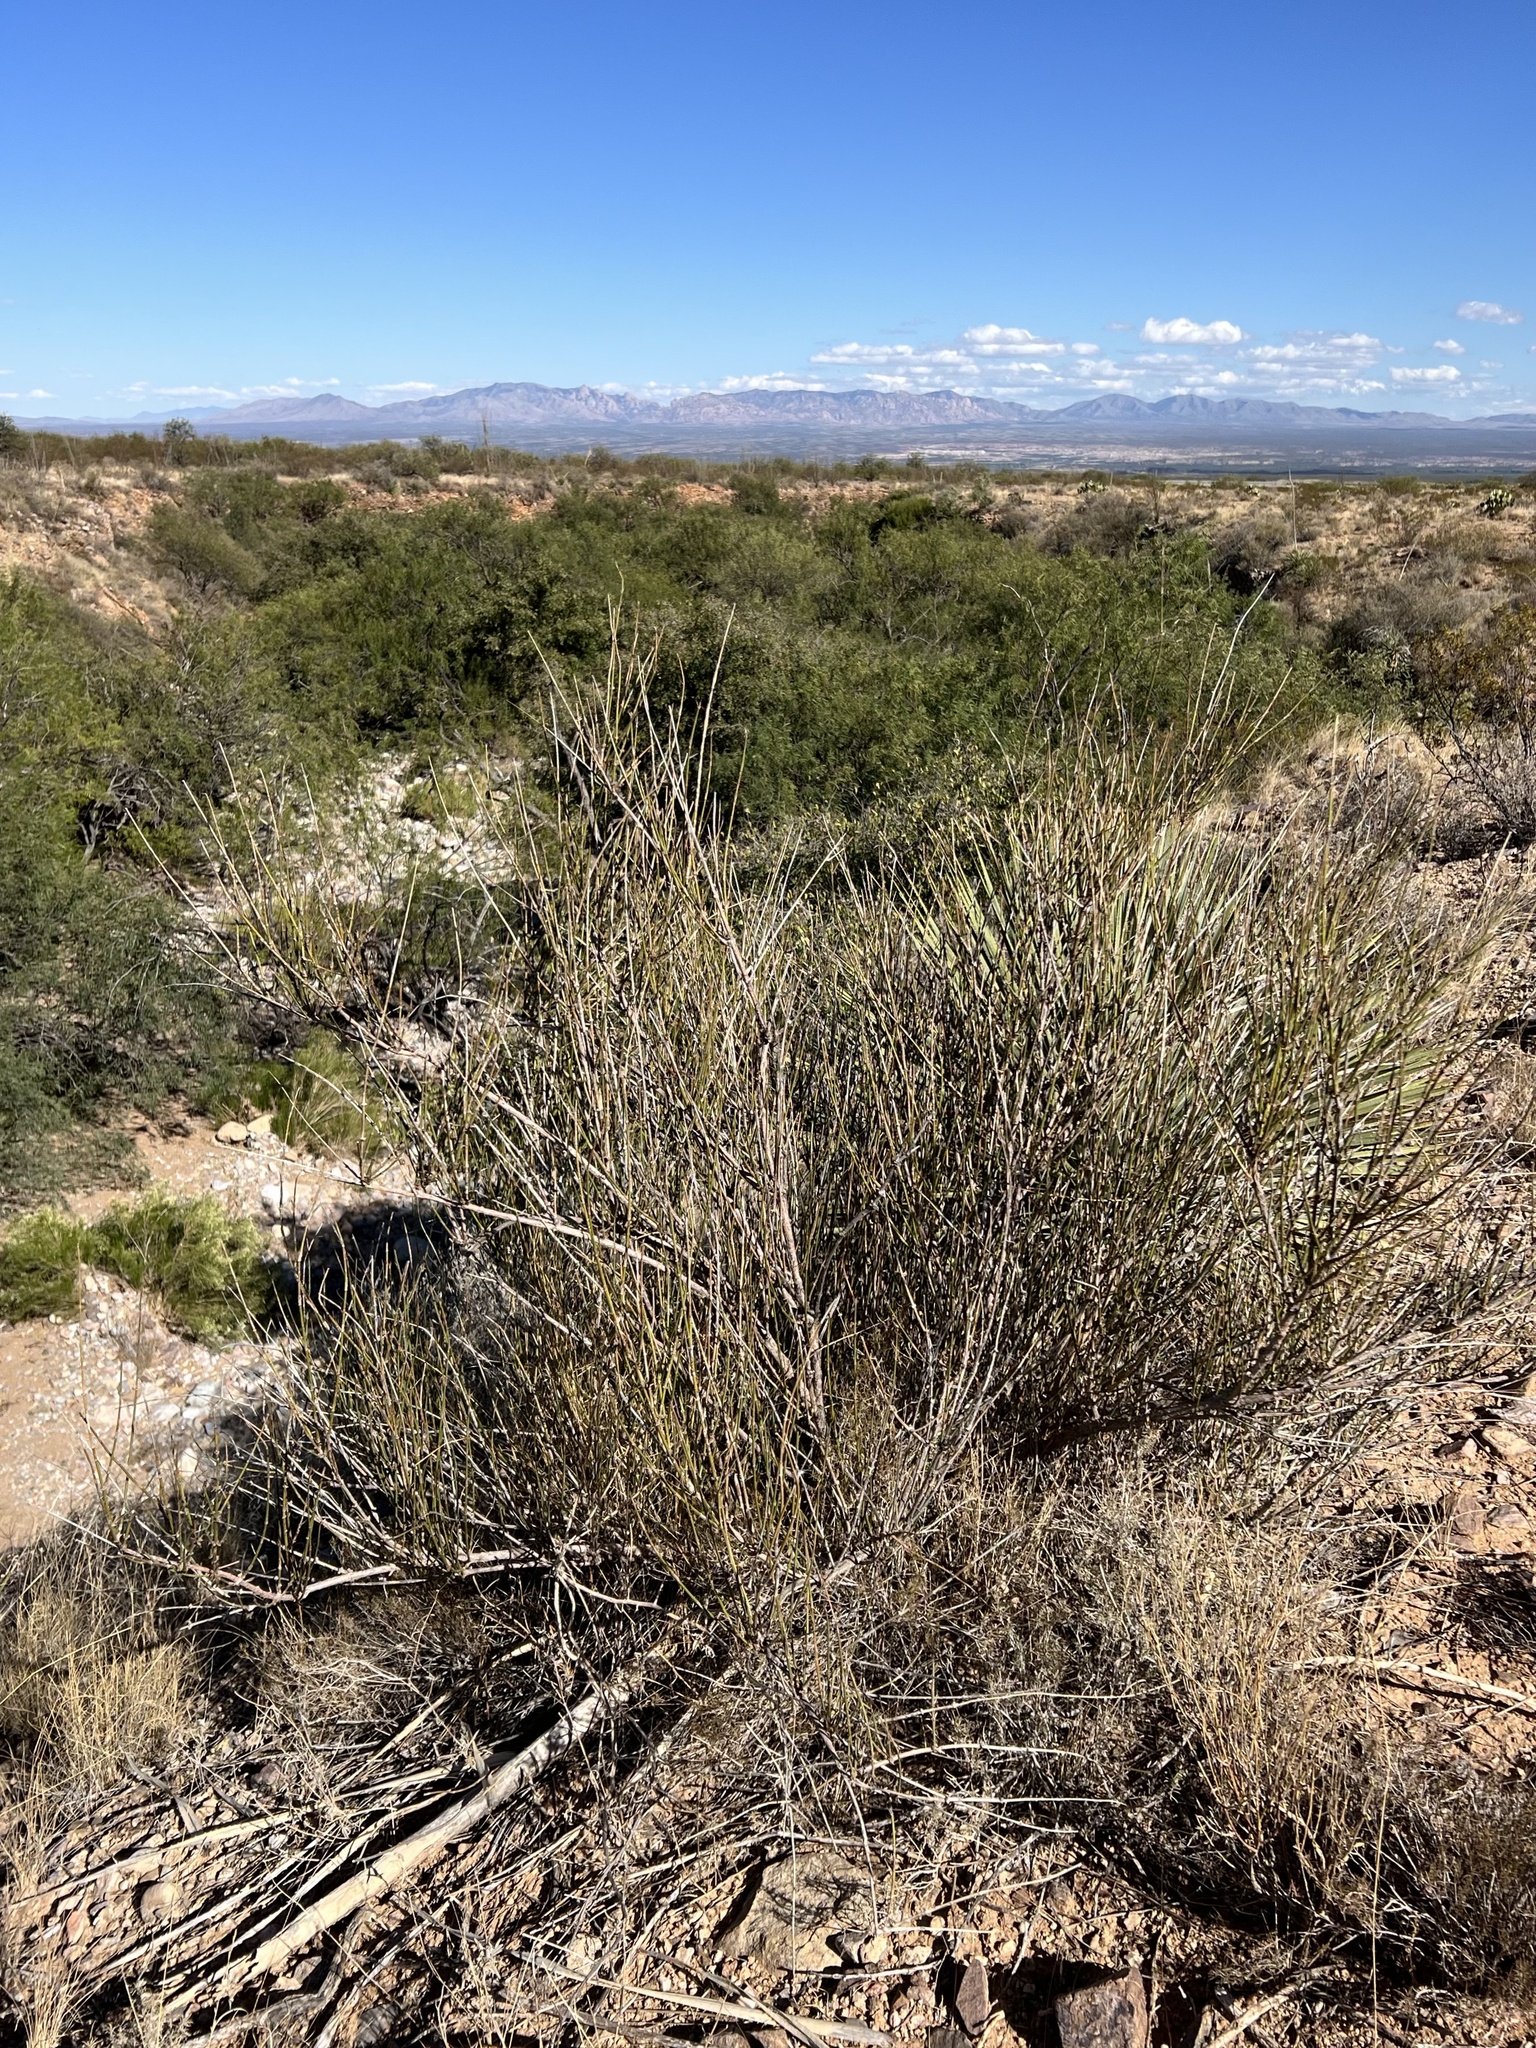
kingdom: Plantae
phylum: Tracheophyta
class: Gnetopsida
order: Ephedrales
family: Ephedraceae
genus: Ephedra
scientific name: Ephedra trifurca
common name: Mexican-tea
